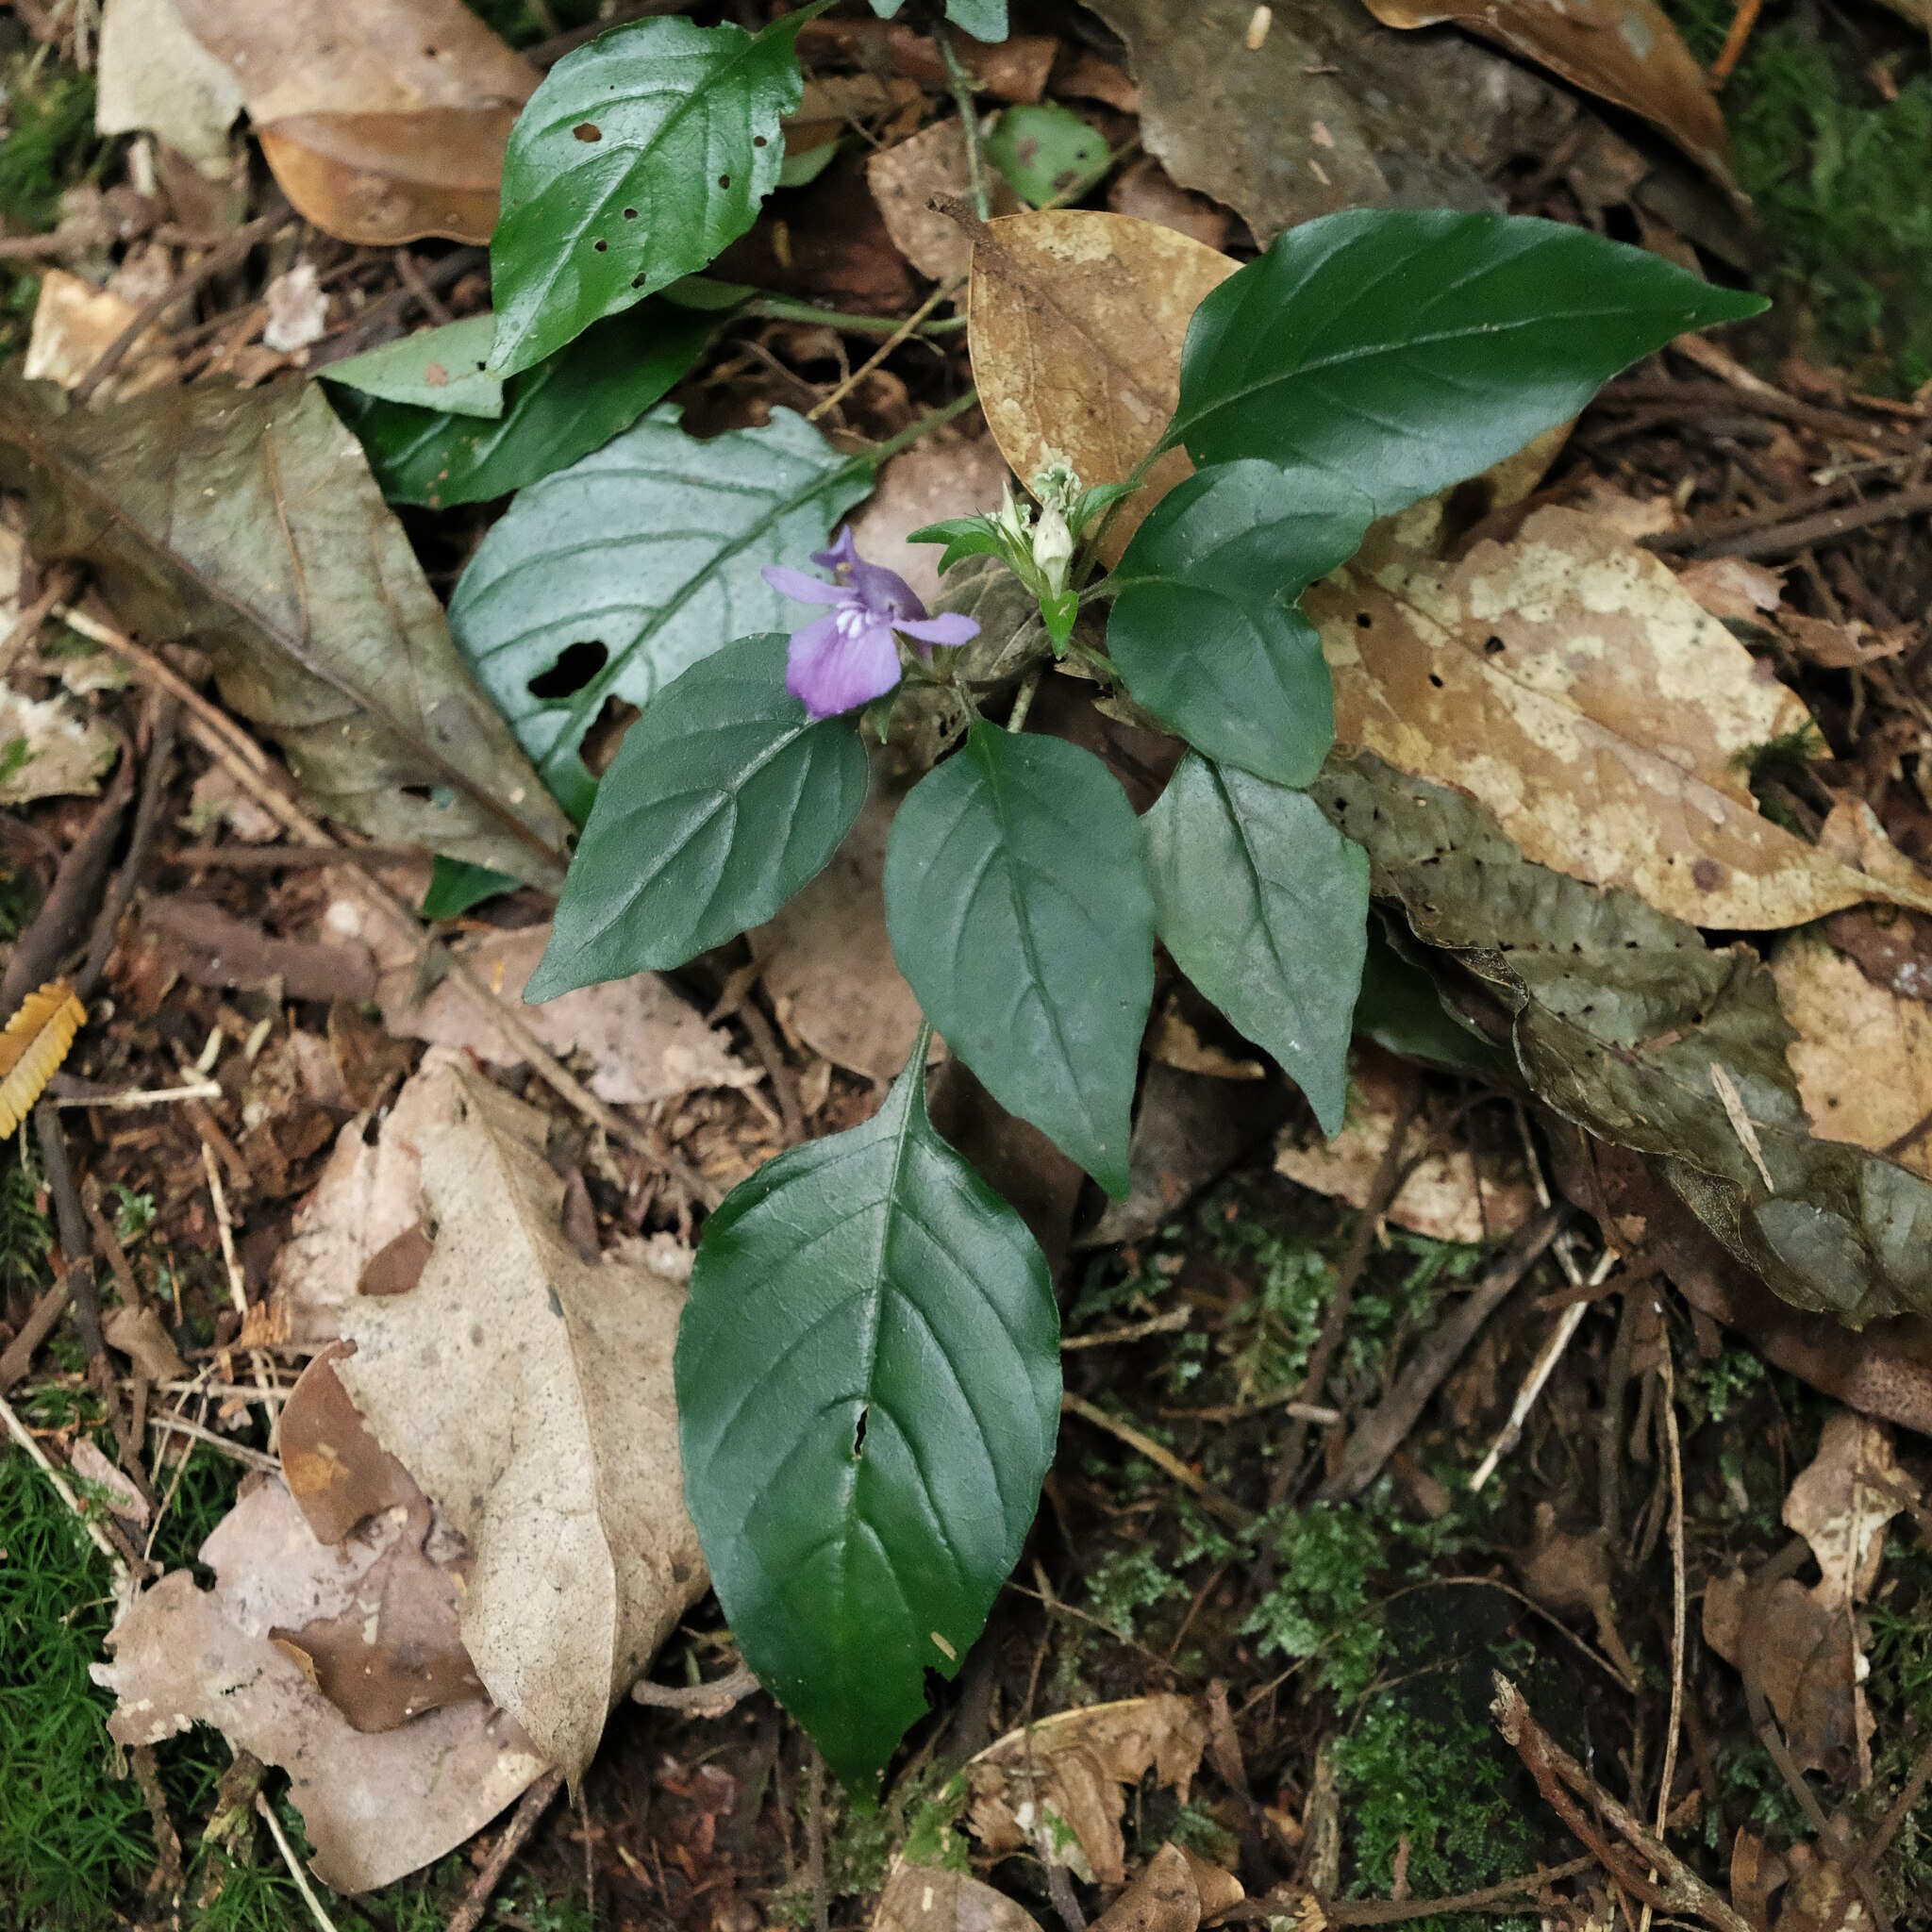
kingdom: Plantae
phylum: Tracheophyta
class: Magnoliopsida
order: Lamiales
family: Acanthaceae
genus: Anisosepalum
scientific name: Anisosepalum humbertii
